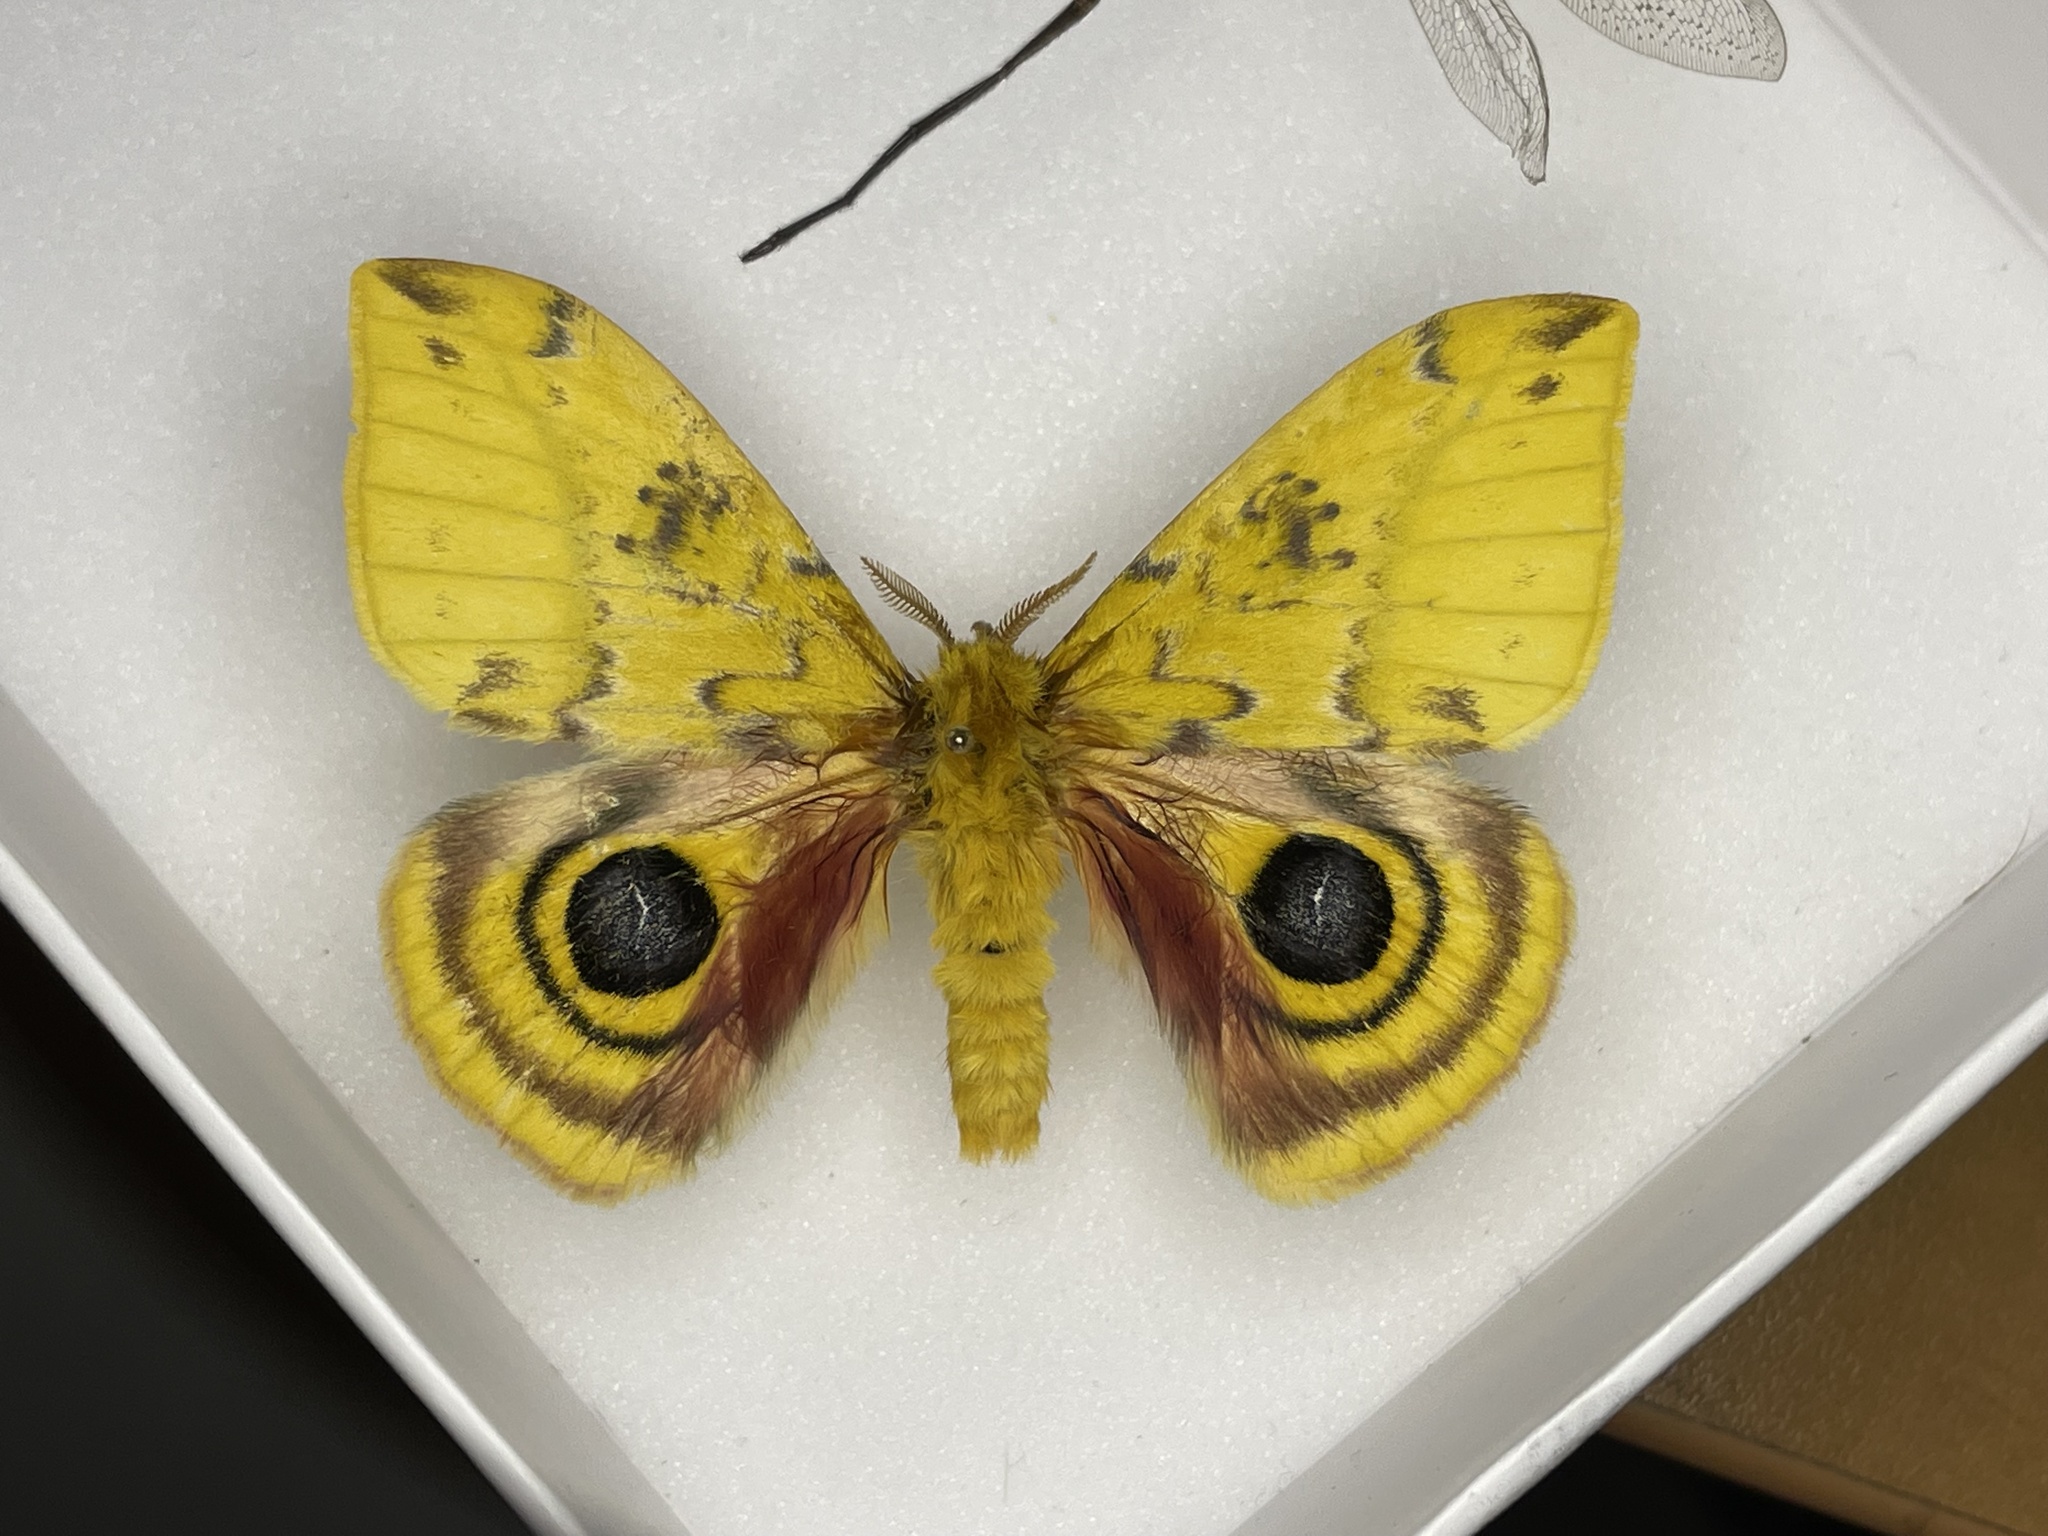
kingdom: Animalia
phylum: Arthropoda
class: Insecta
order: Lepidoptera
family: Saturniidae
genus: Automeris
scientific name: Automeris io
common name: Io moth
